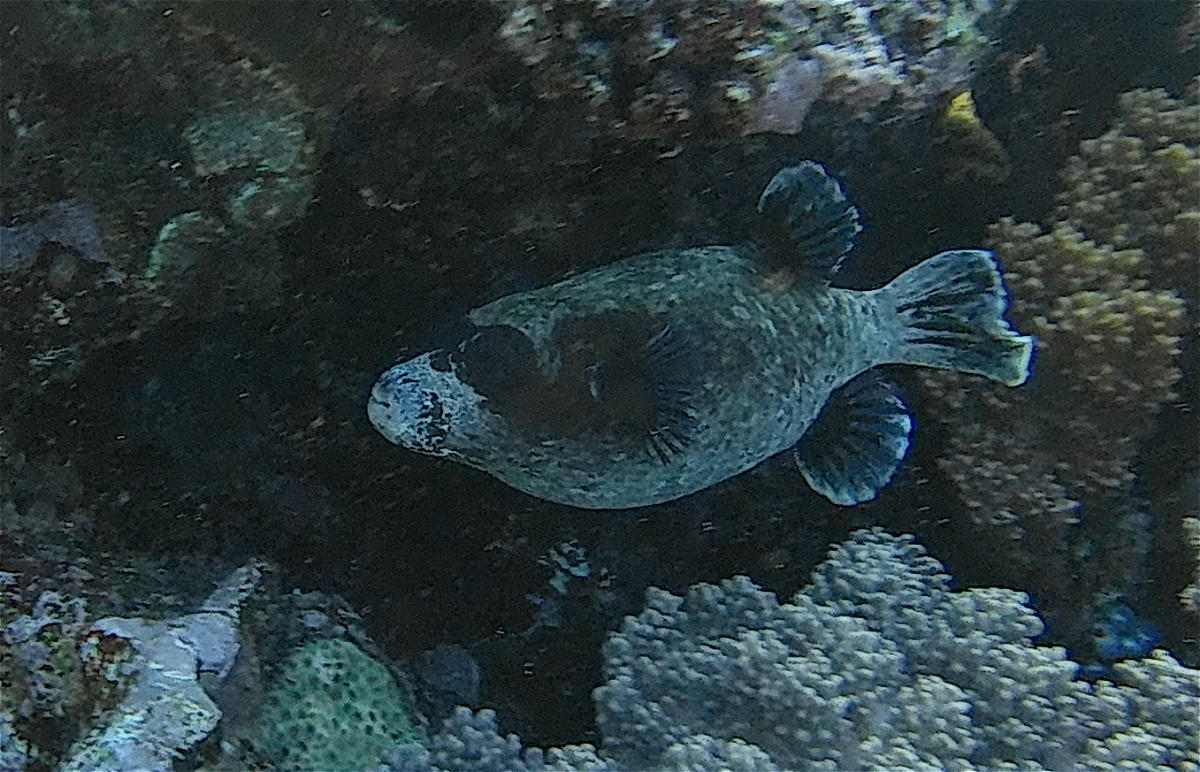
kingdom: Animalia
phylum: Chordata
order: Tetraodontiformes
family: Tetraodontidae
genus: Arothron
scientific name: Arothron diadematus
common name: Masked puffer
